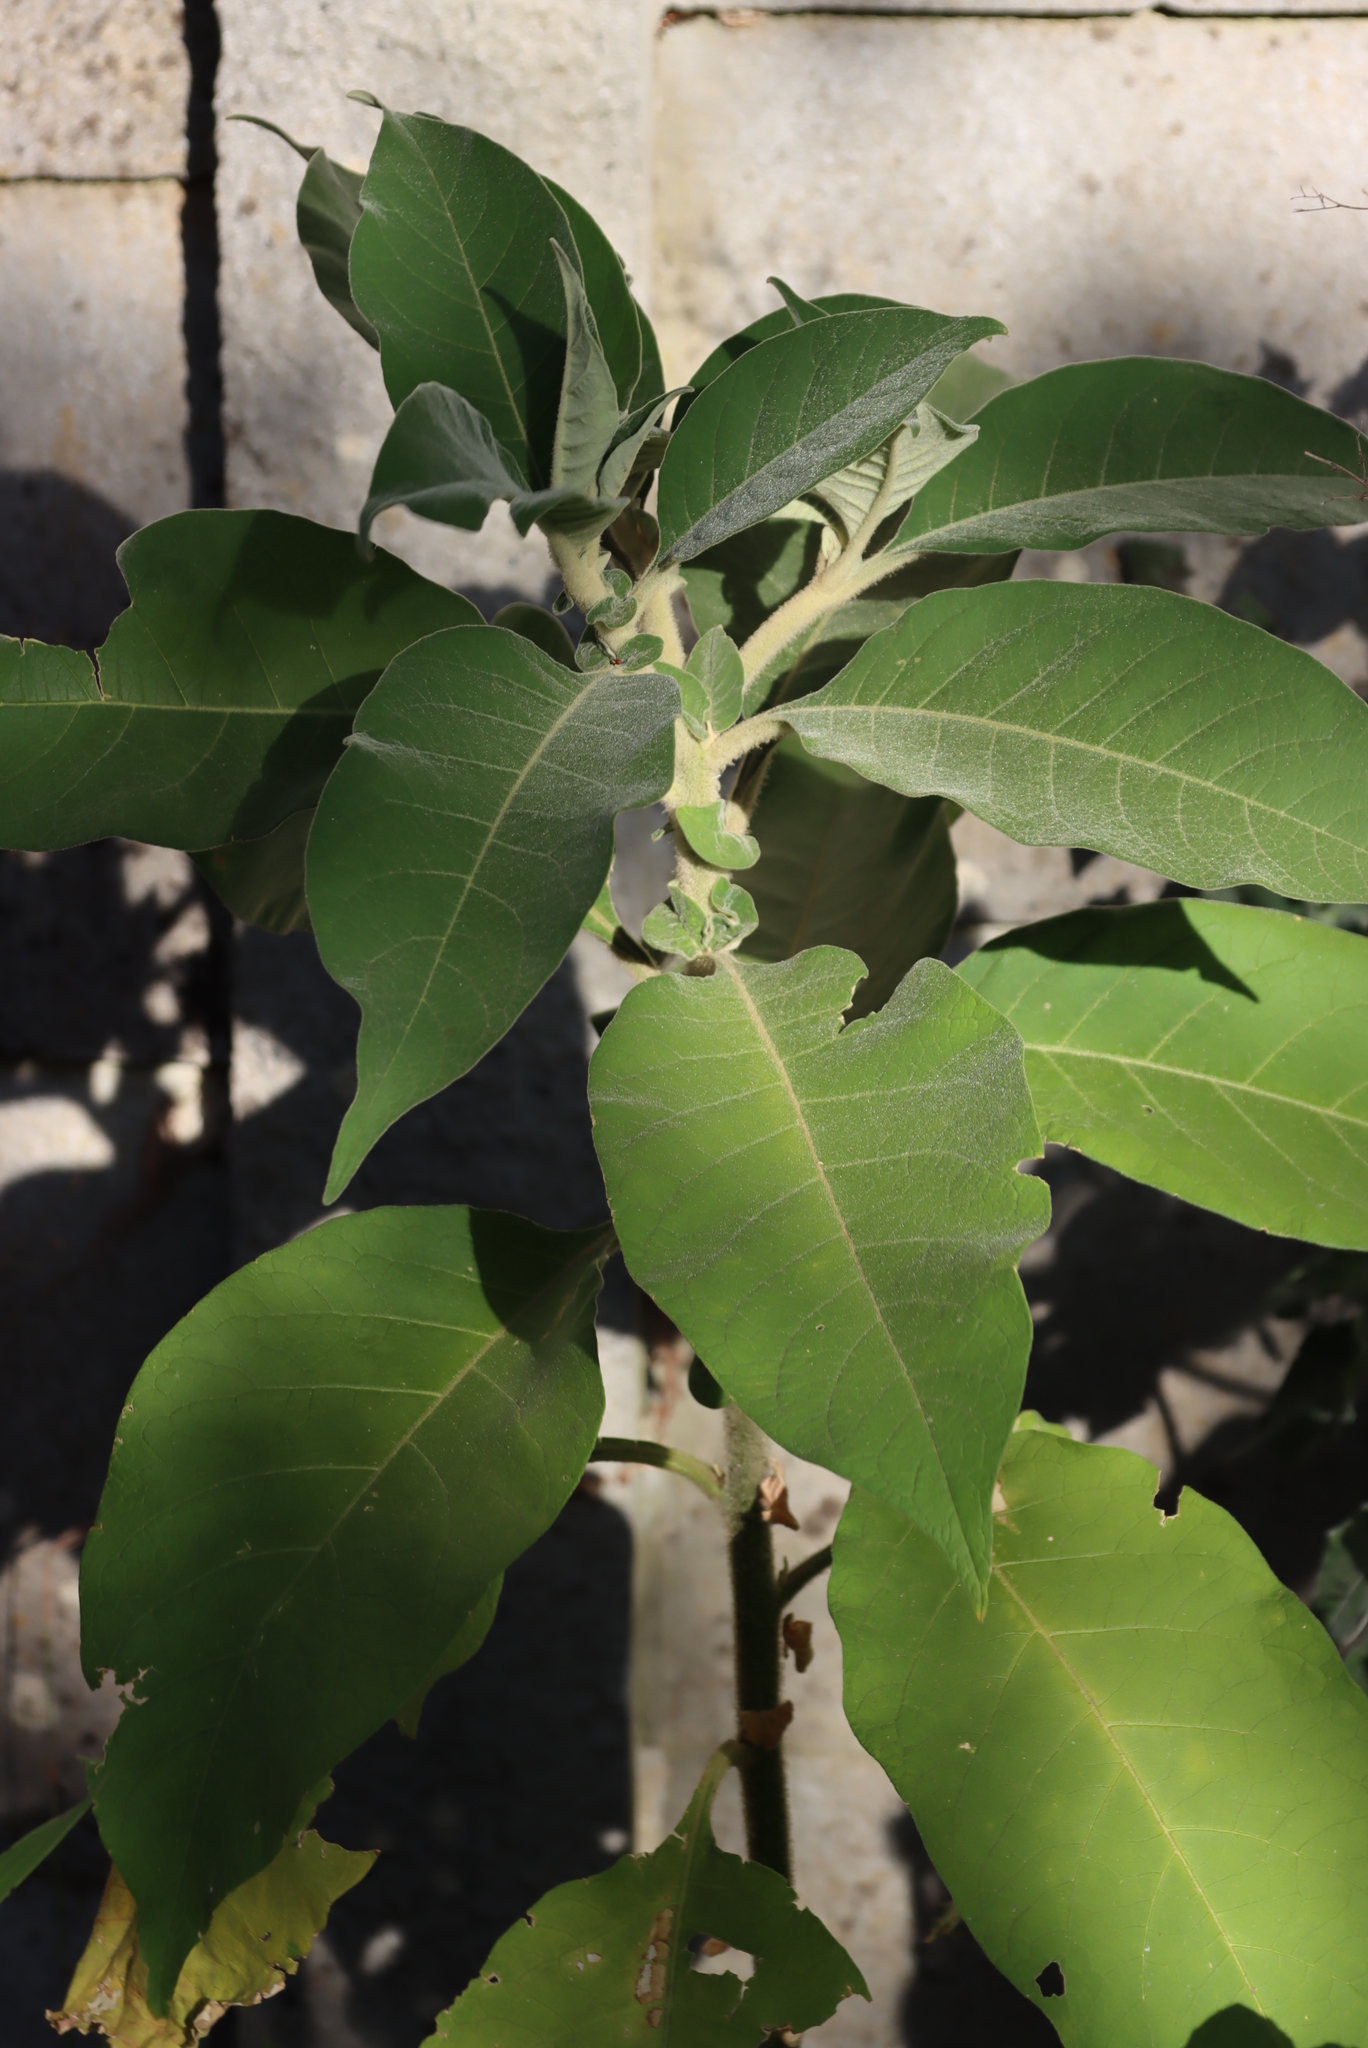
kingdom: Plantae
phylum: Tracheophyta
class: Magnoliopsida
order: Solanales
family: Solanaceae
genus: Solanum
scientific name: Solanum mauritianum
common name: Earleaf nightshade
